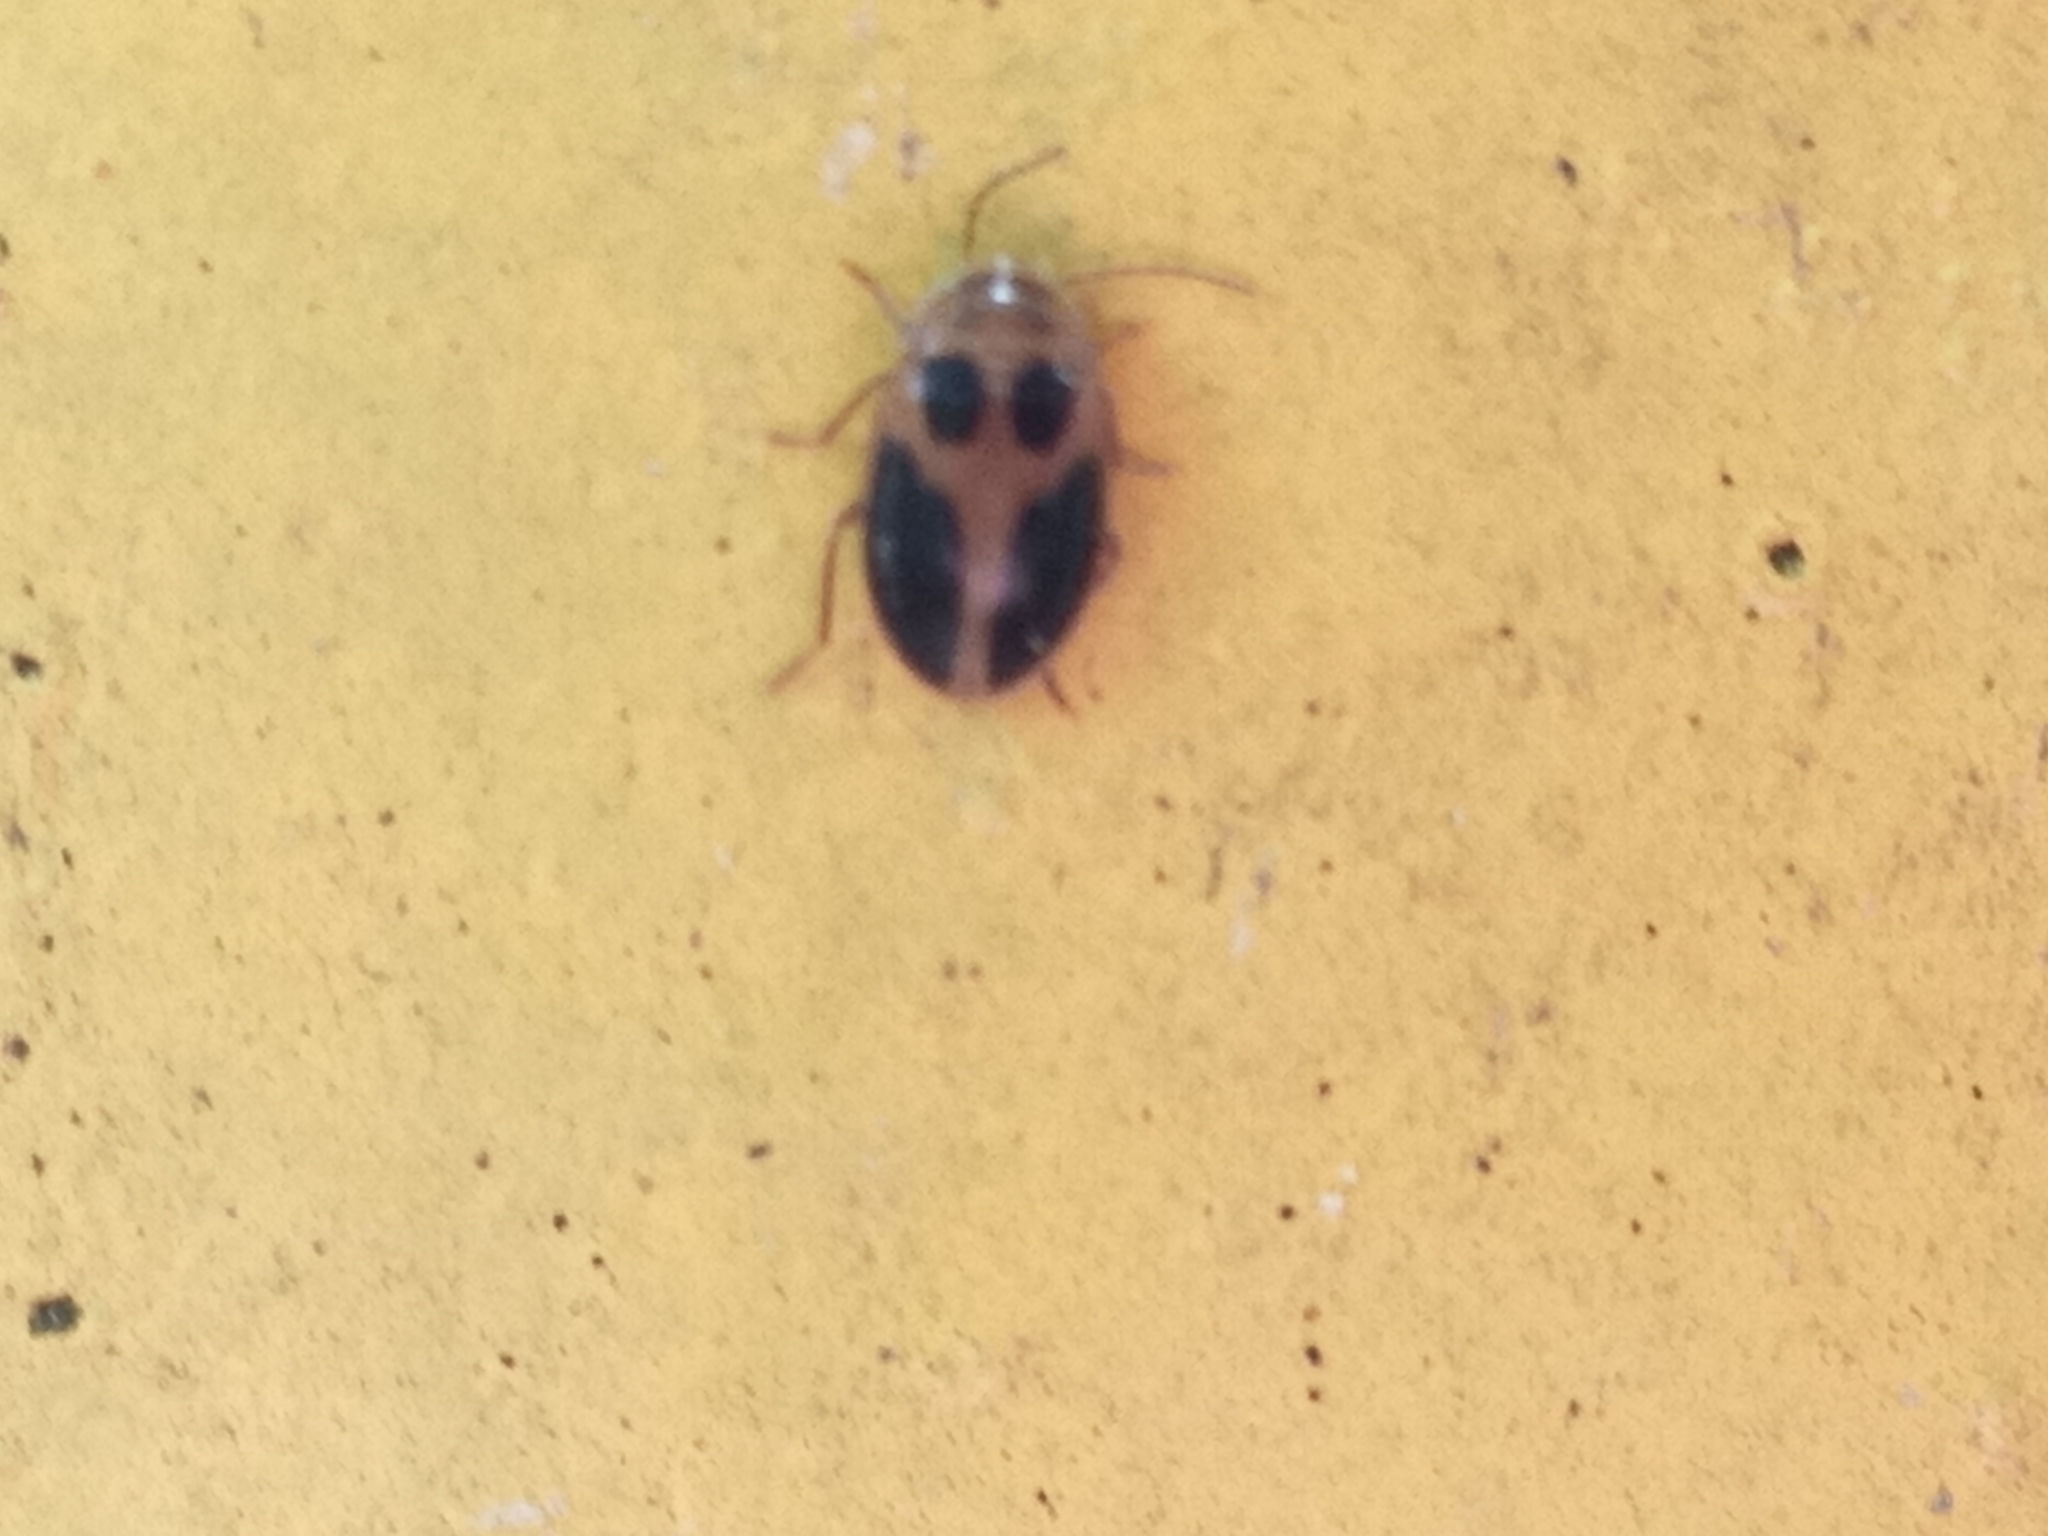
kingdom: Animalia
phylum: Arthropoda
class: Insecta
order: Coleoptera
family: Scirtidae
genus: Sacodes
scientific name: Sacodes pulchella
